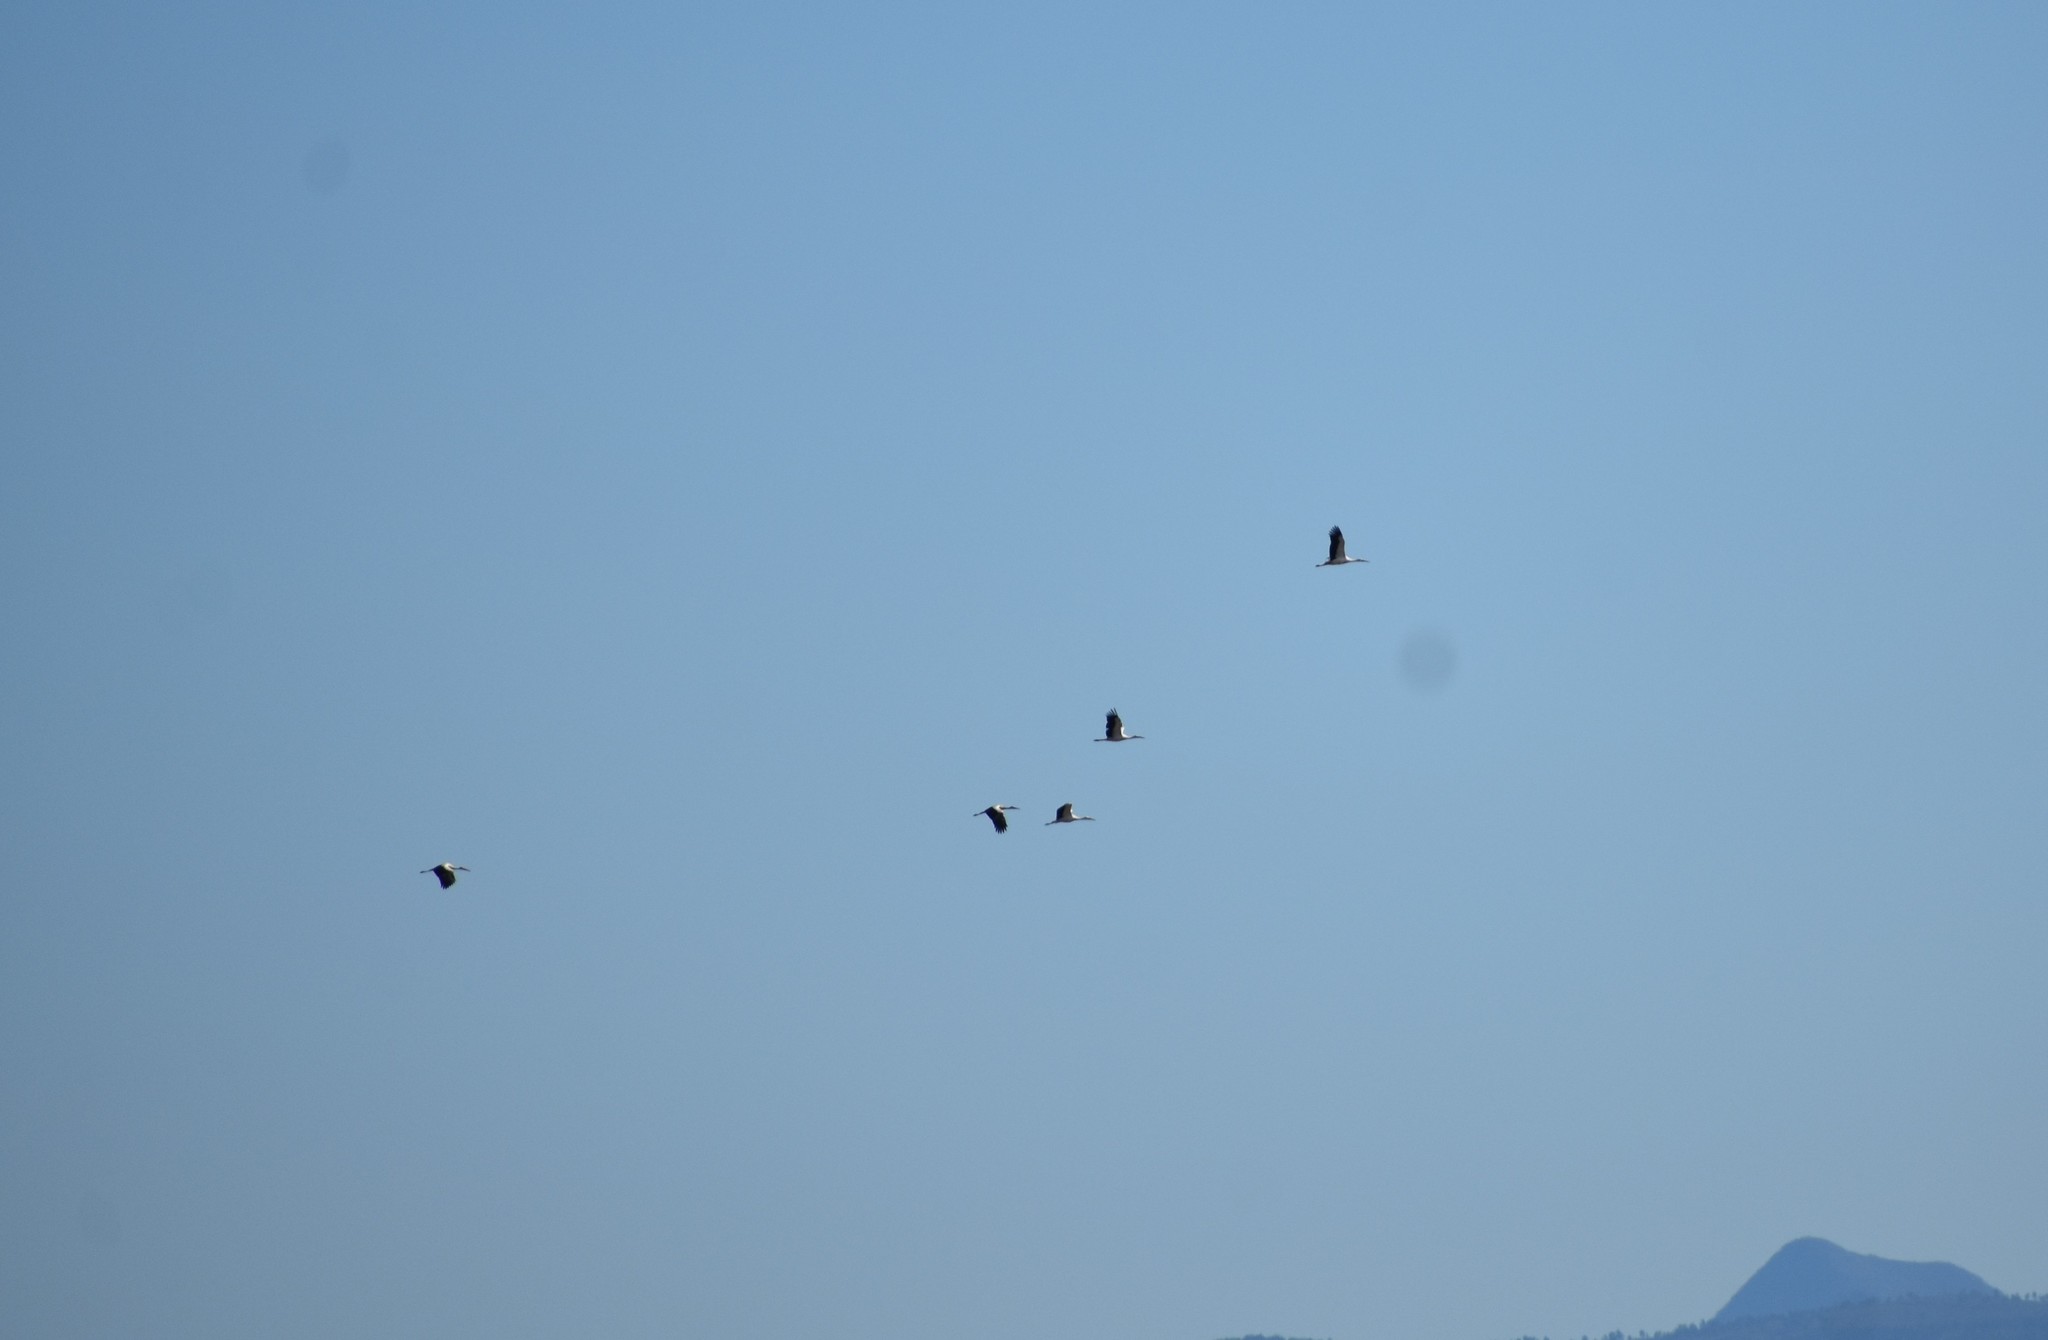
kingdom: Animalia
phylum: Chordata
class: Aves
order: Ciconiiformes
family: Ciconiidae
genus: Ciconia
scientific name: Ciconia ciconia
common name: White stork
